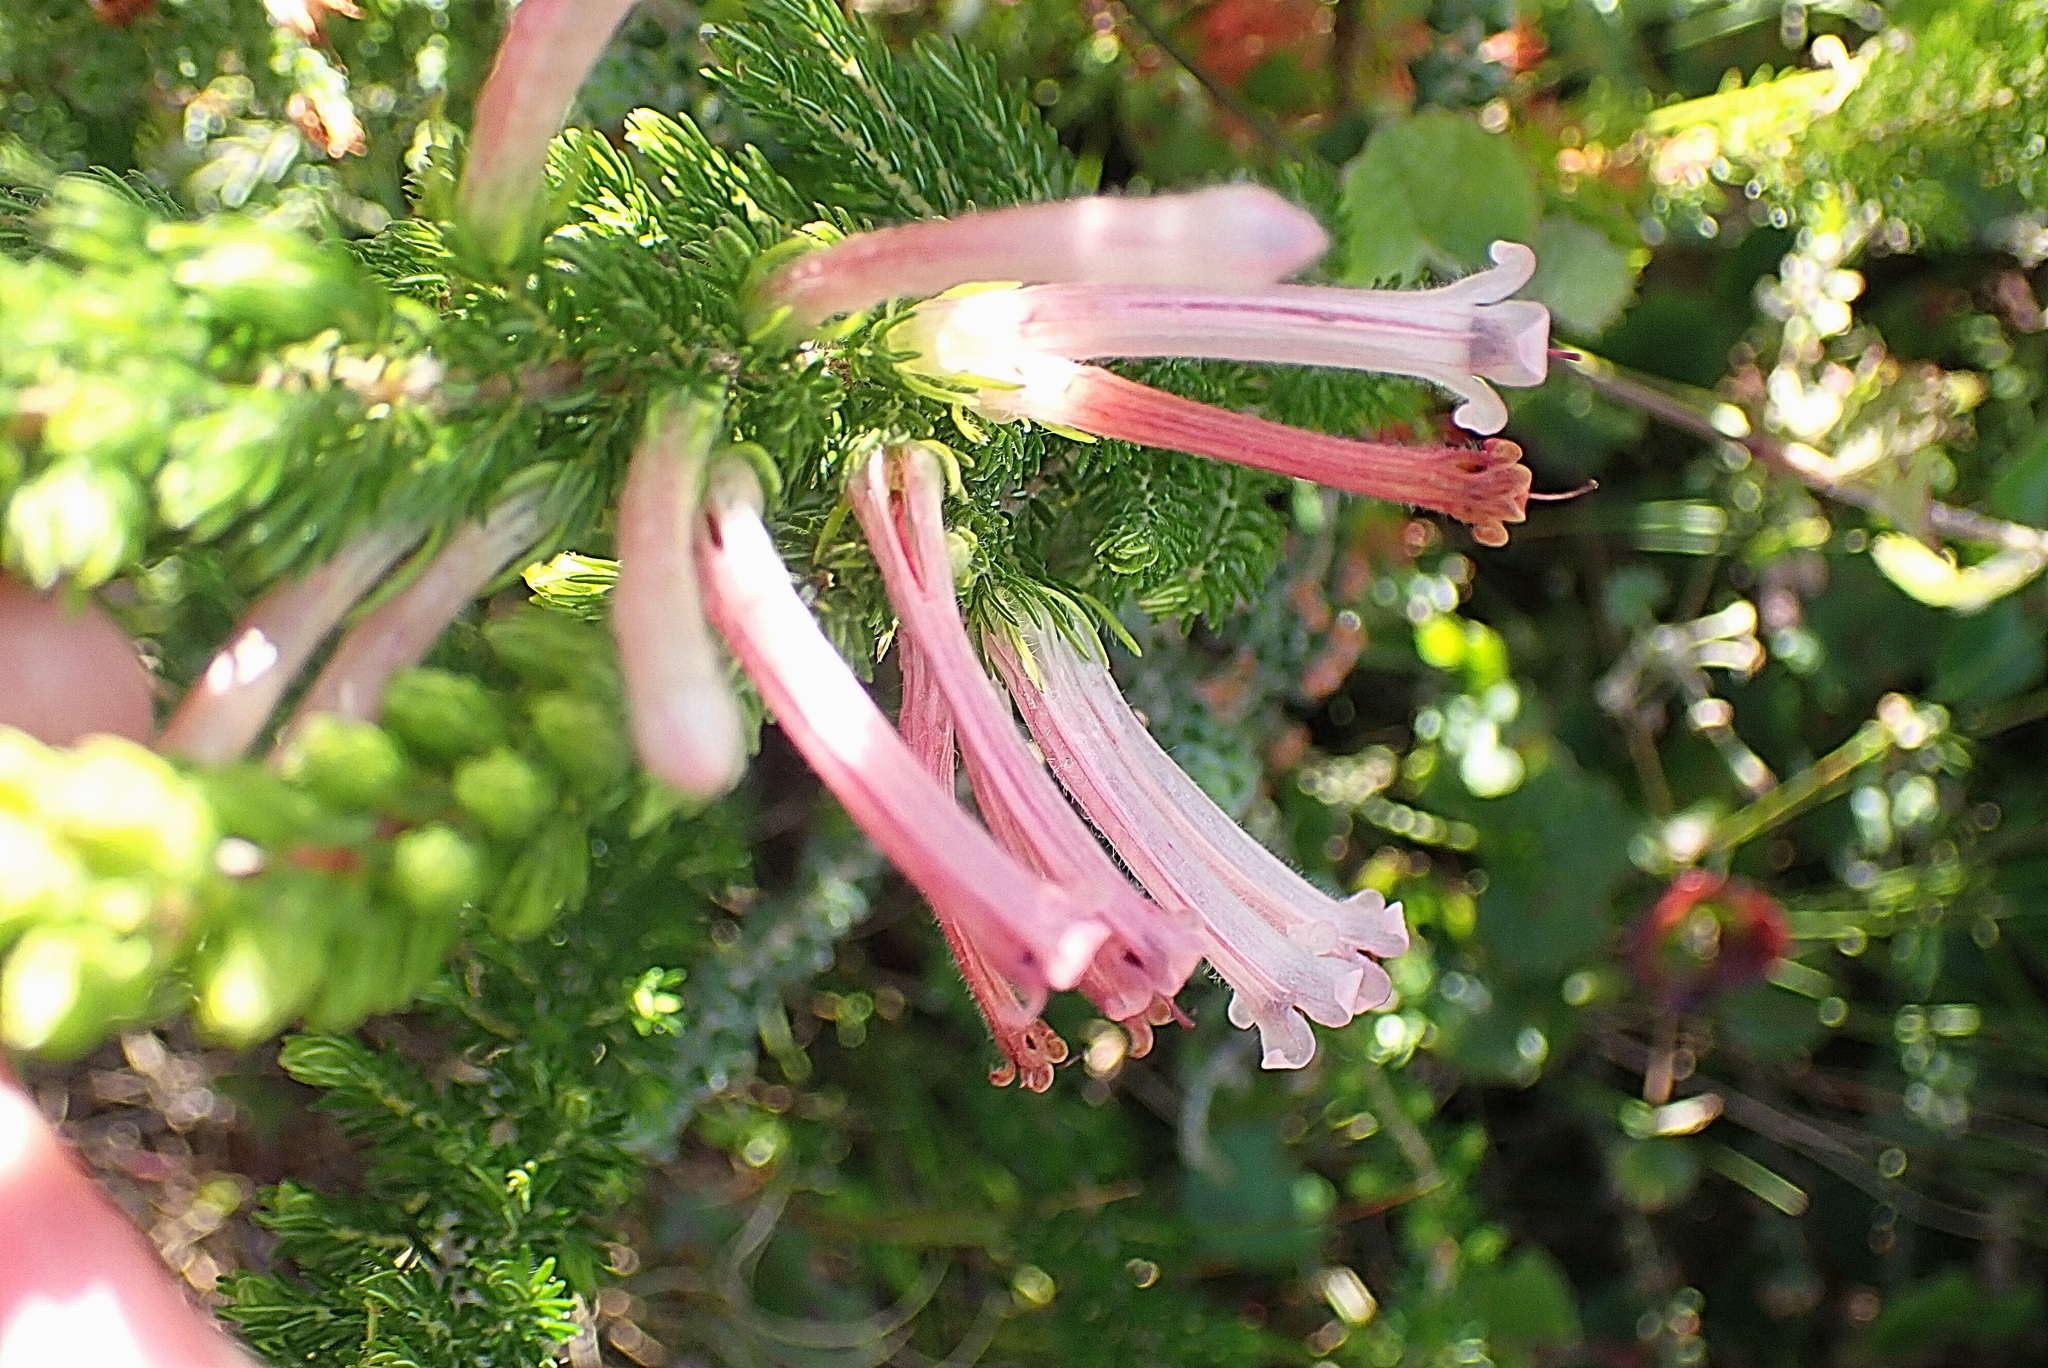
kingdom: Plantae
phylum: Tracheophyta
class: Magnoliopsida
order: Ericales
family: Ericaceae
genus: Erica
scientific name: Erica curviflora
